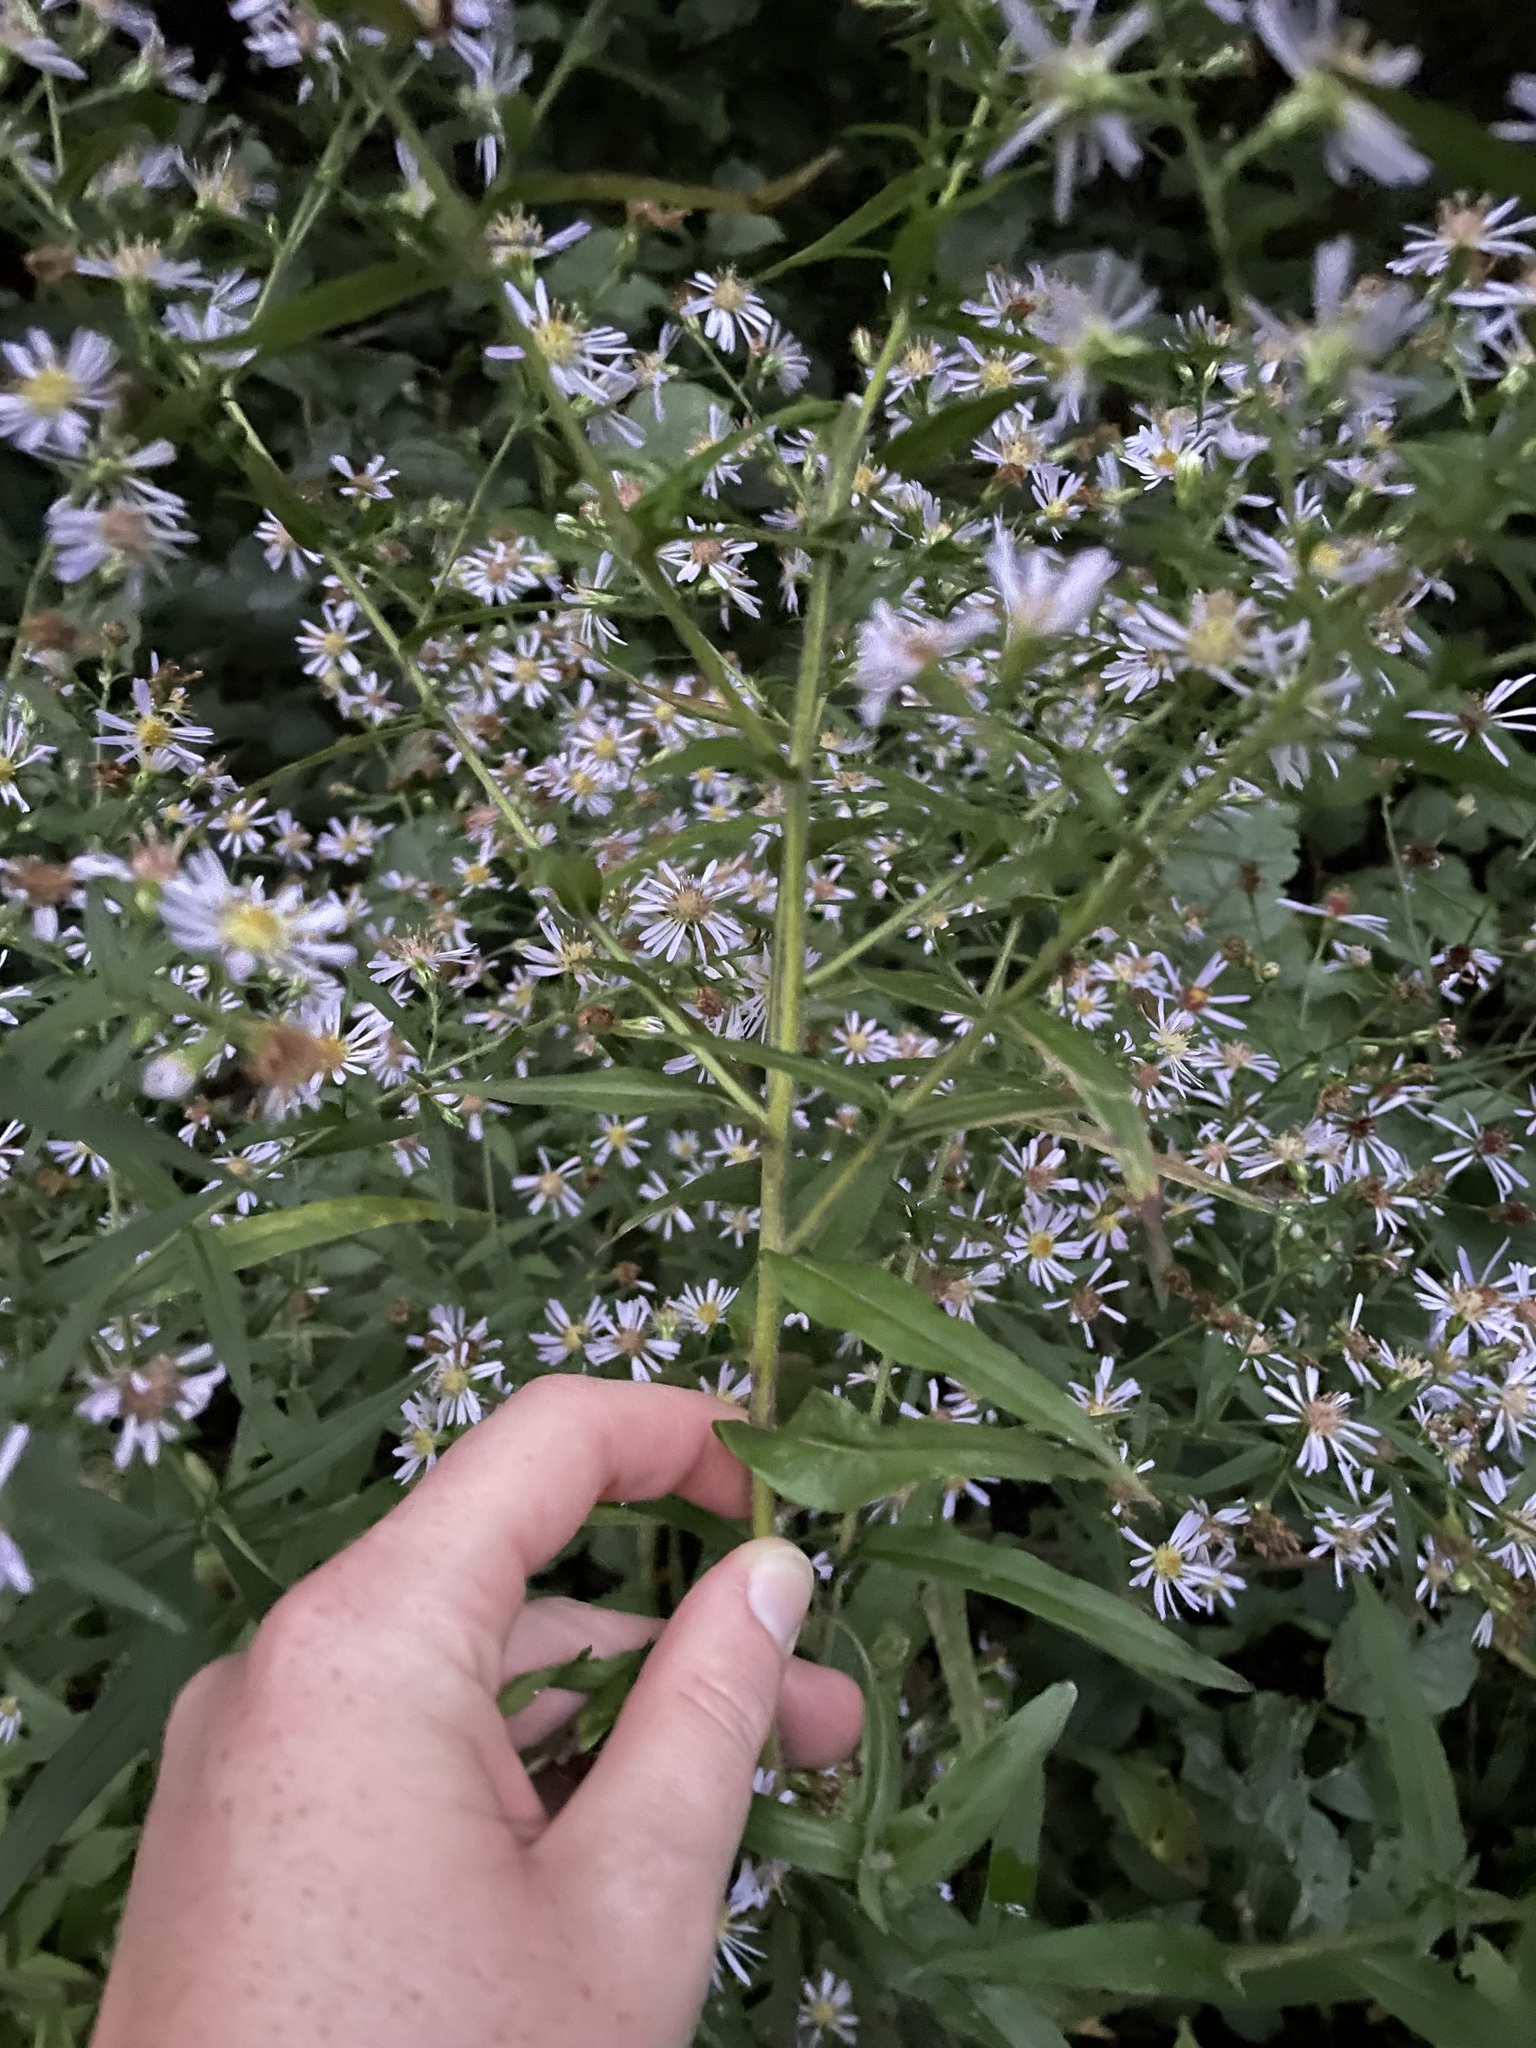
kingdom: Plantae
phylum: Tracheophyta
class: Magnoliopsida
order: Asterales
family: Asteraceae
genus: Symphyotrichum
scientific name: Symphyotrichum puniceum
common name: Bog aster
